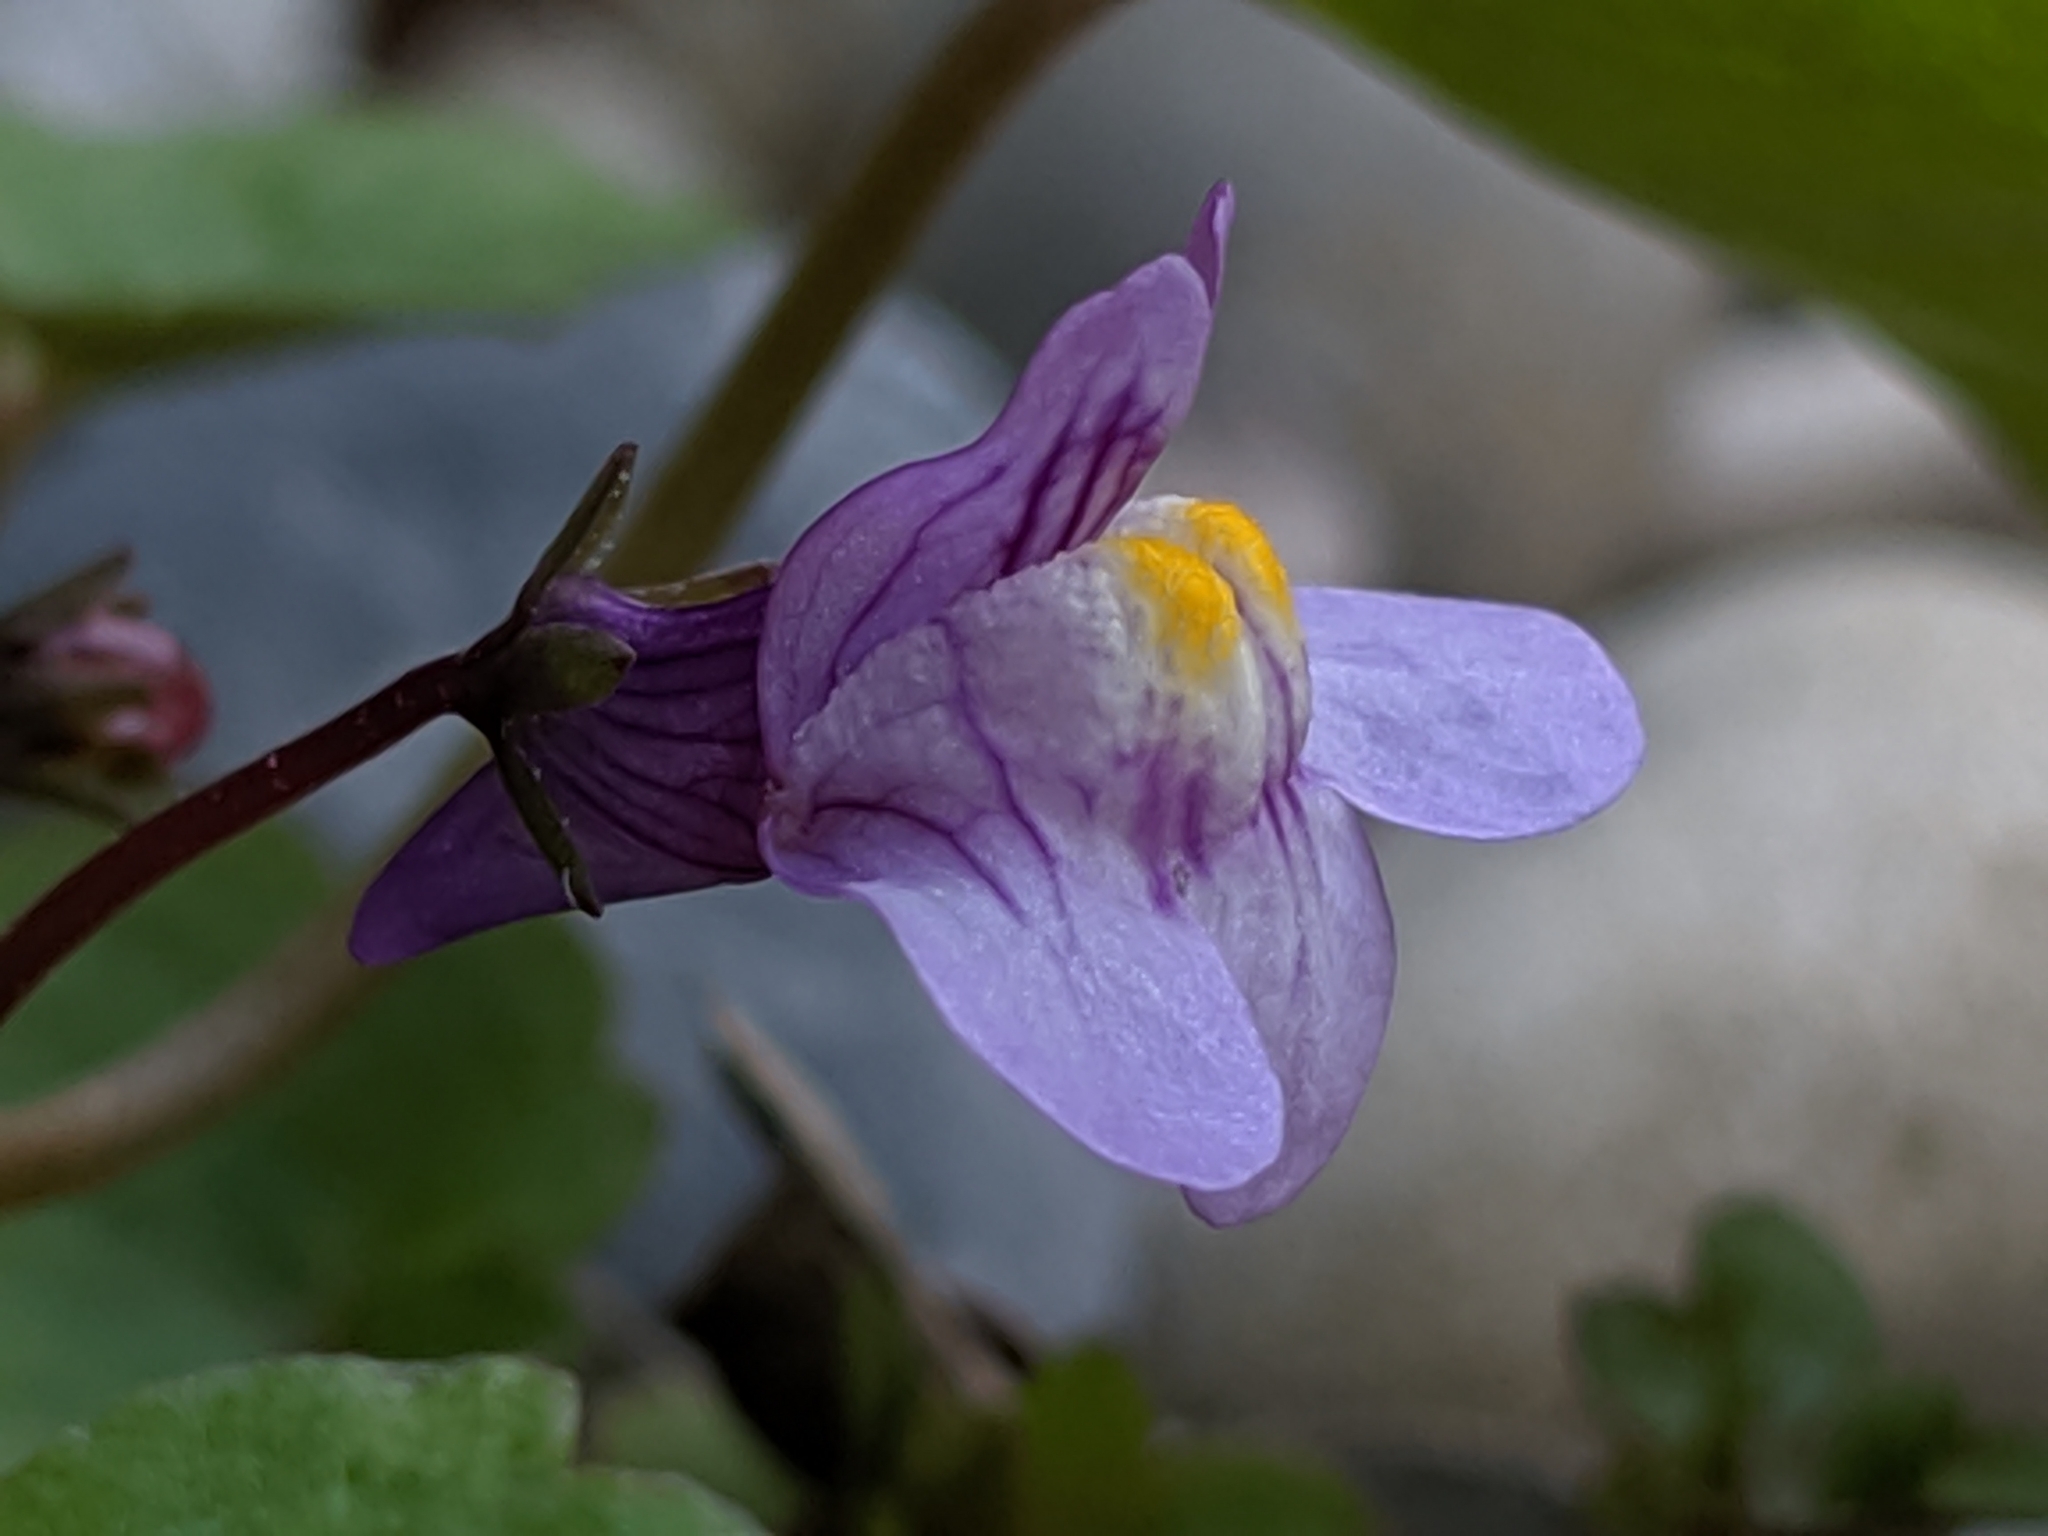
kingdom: Plantae
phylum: Tracheophyta
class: Magnoliopsida
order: Lamiales
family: Plantaginaceae
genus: Cymbalaria
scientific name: Cymbalaria muralis
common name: Ivy-leaved toadflax
